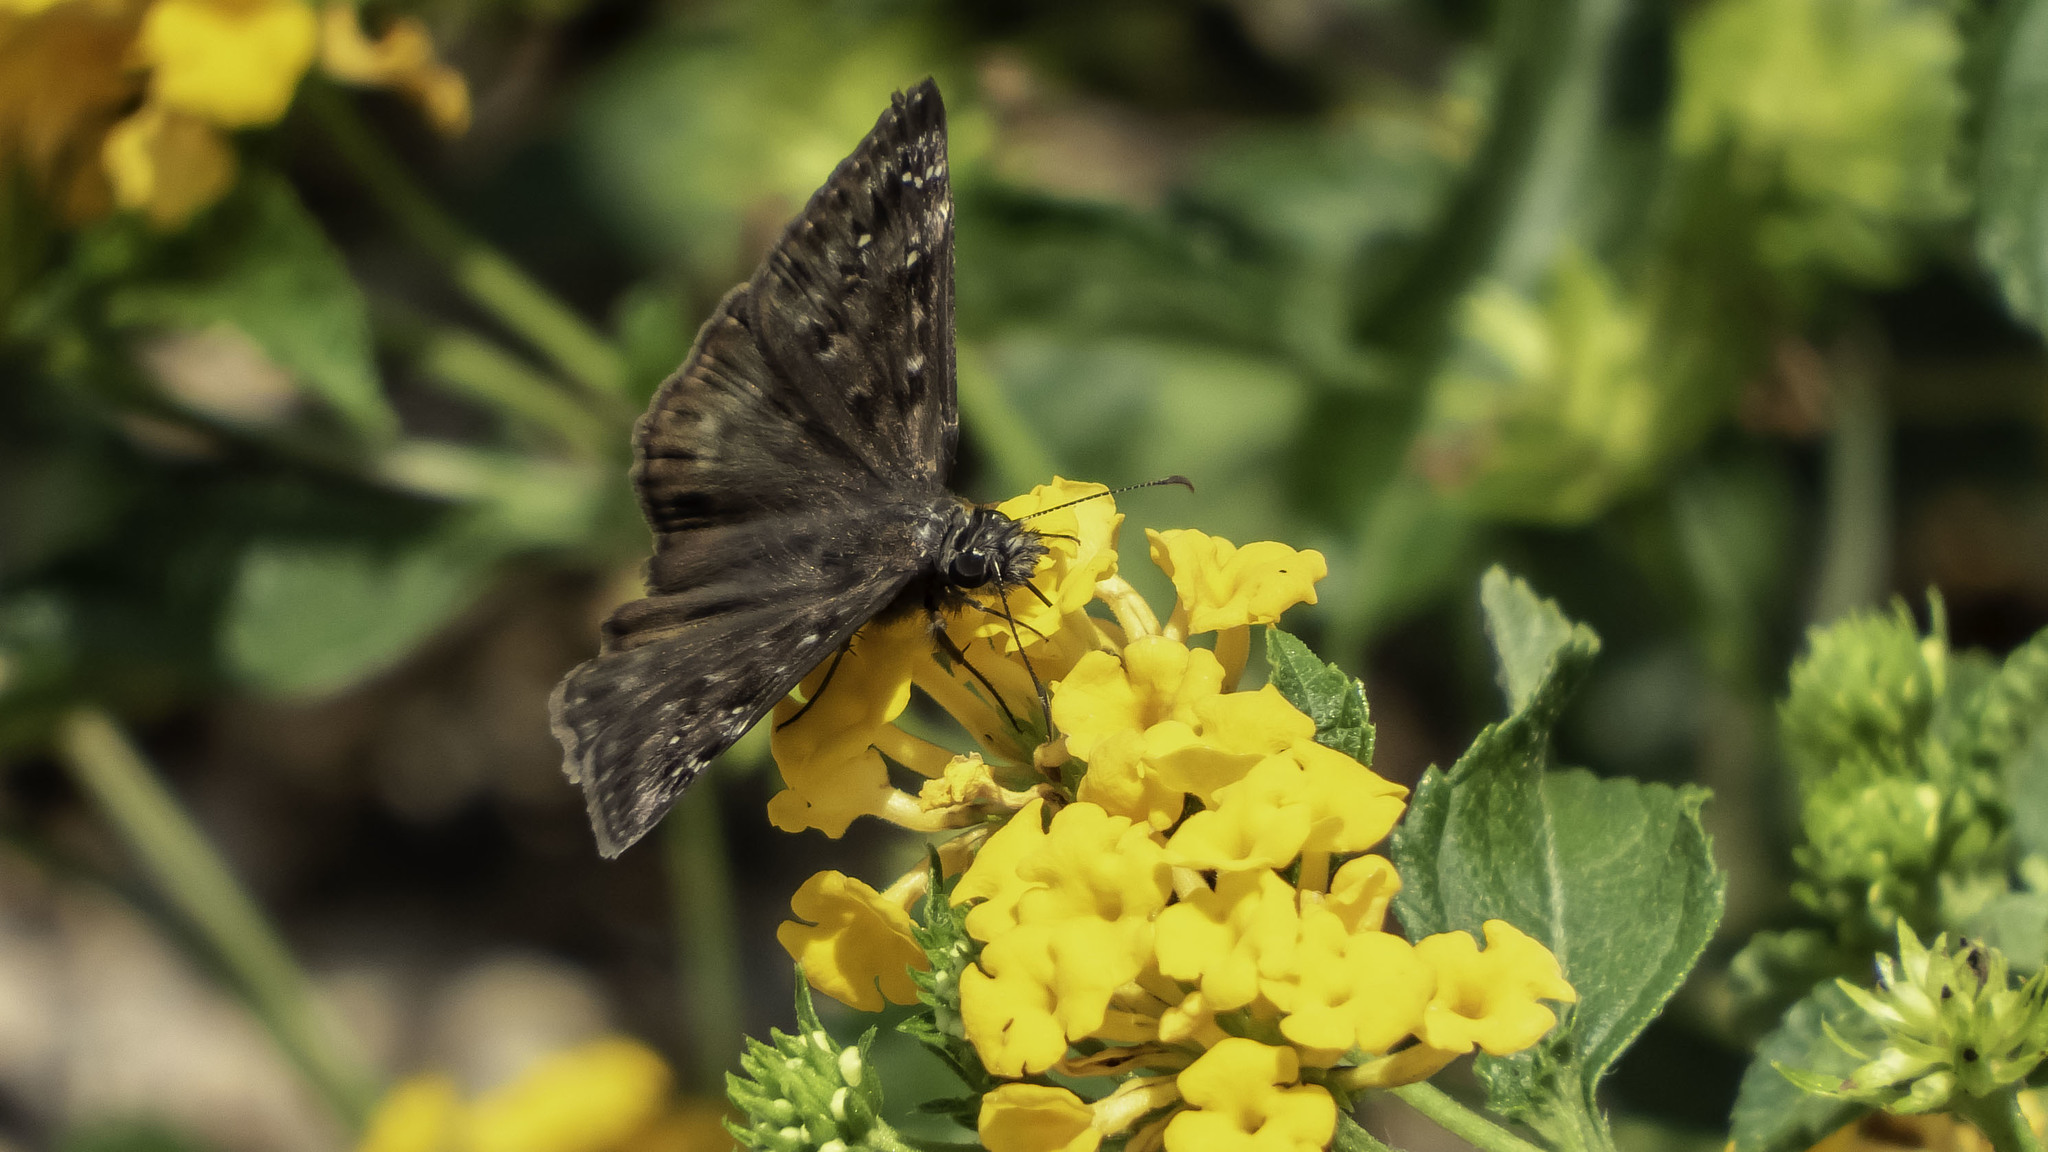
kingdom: Animalia
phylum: Arthropoda
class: Insecta
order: Lepidoptera
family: Hesperiidae
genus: Erynnis
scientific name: Erynnis horatius
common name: Horace's duskywing
